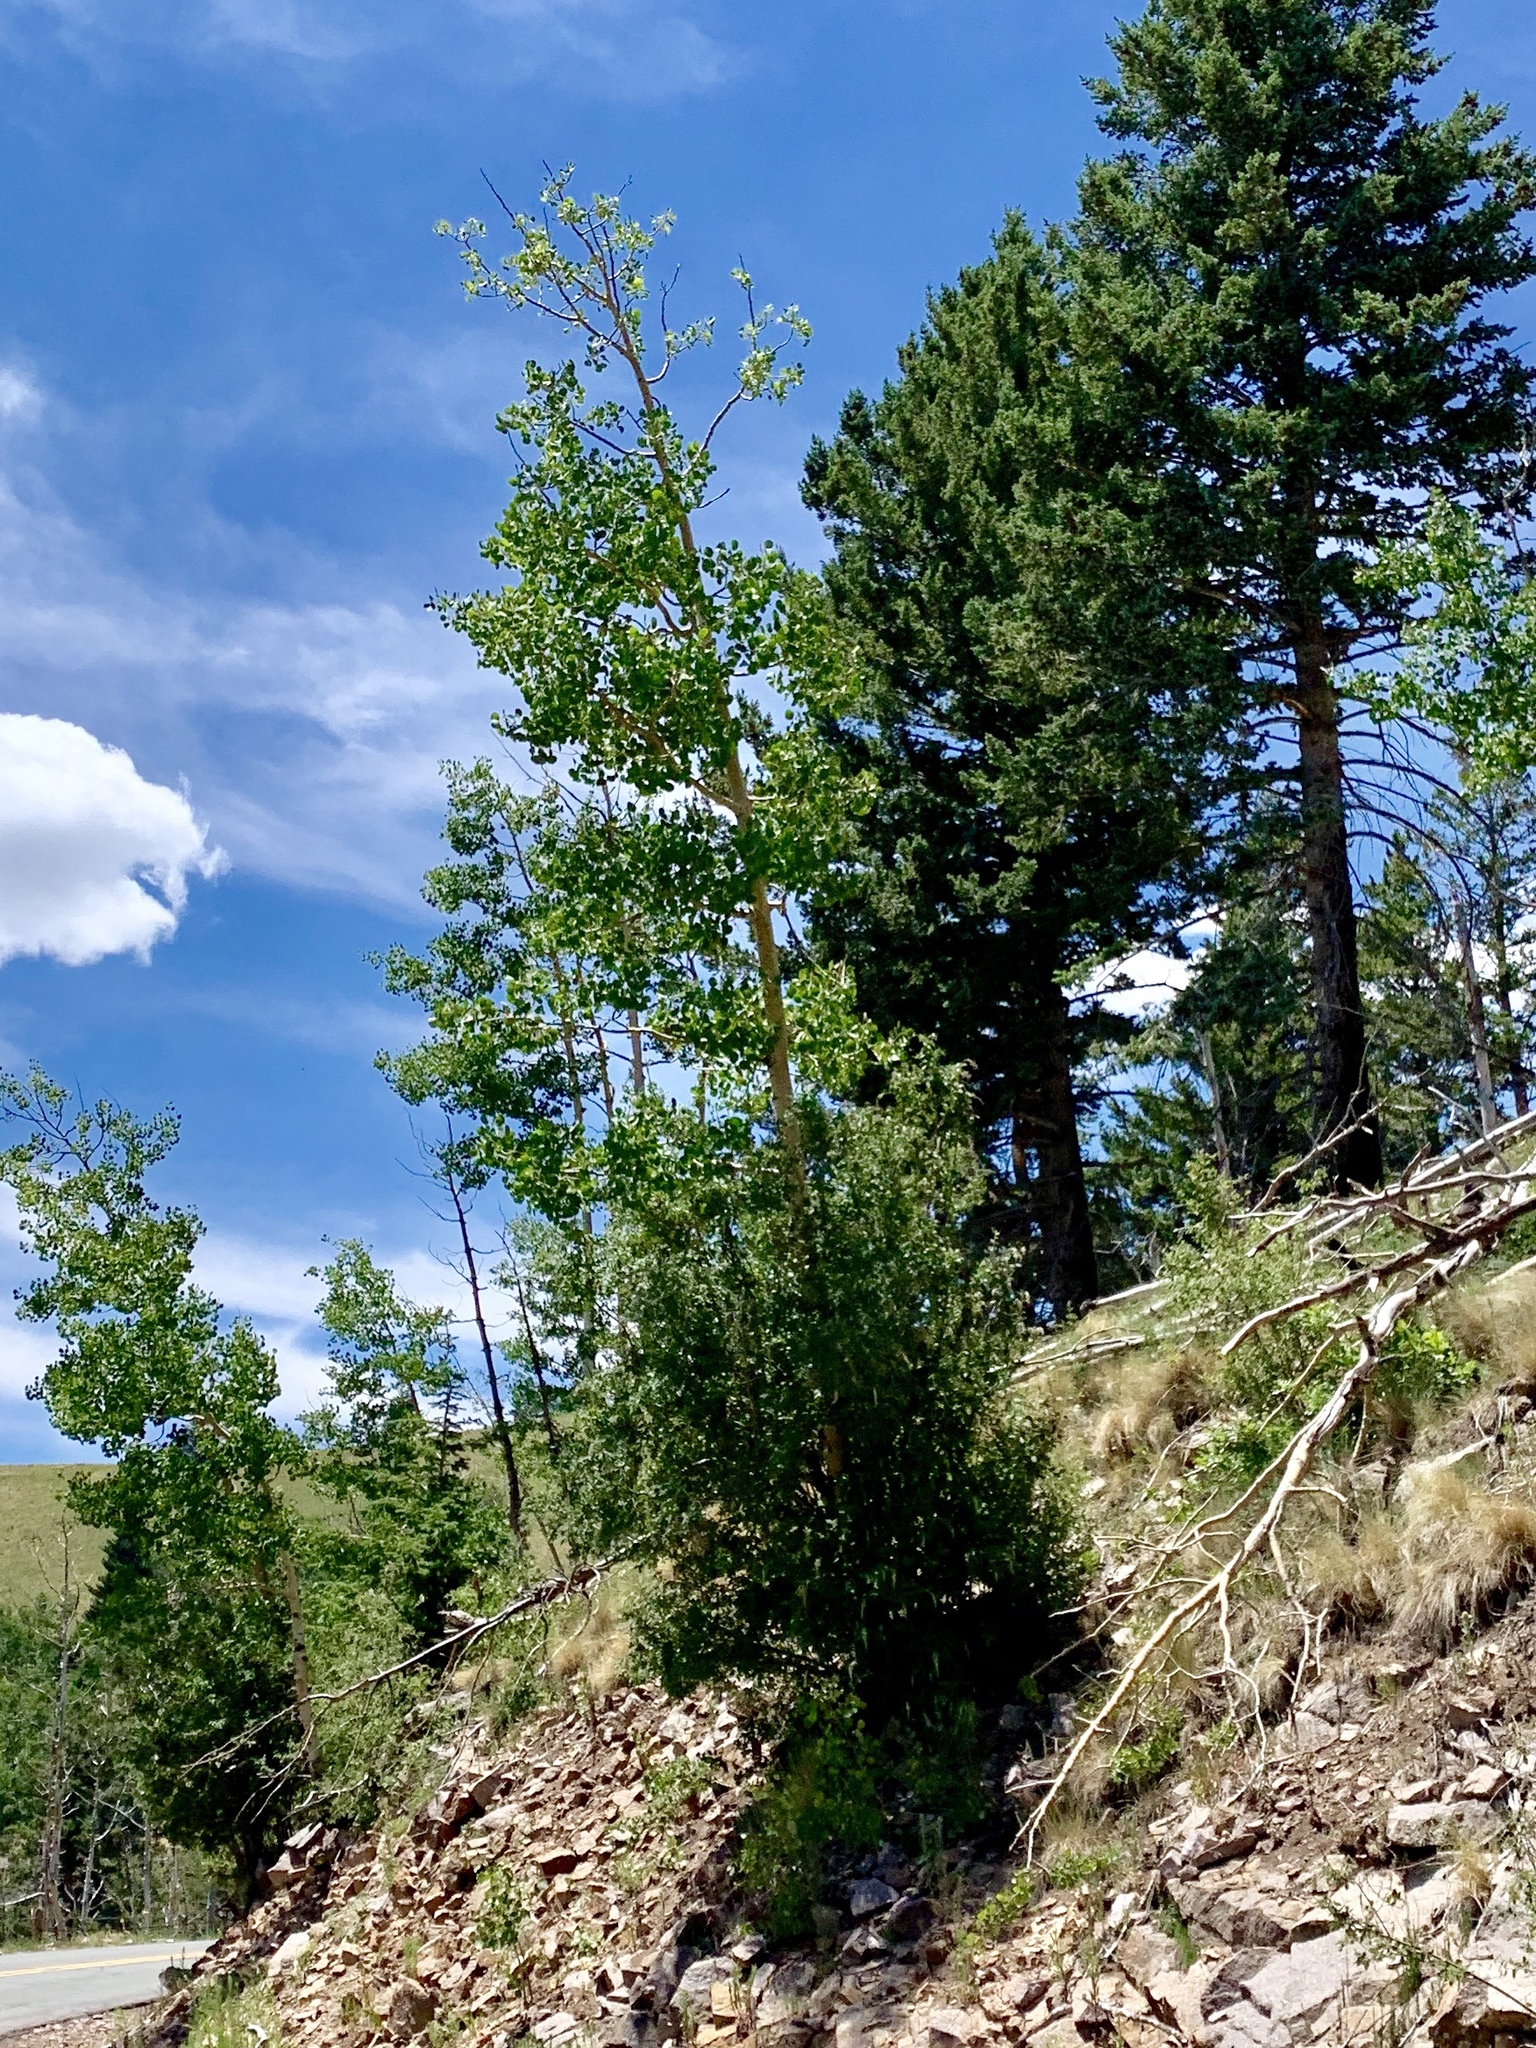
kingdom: Plantae
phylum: Tracheophyta
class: Magnoliopsida
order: Malpighiales
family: Salicaceae
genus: Populus
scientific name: Populus tremuloides
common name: Quaking aspen
